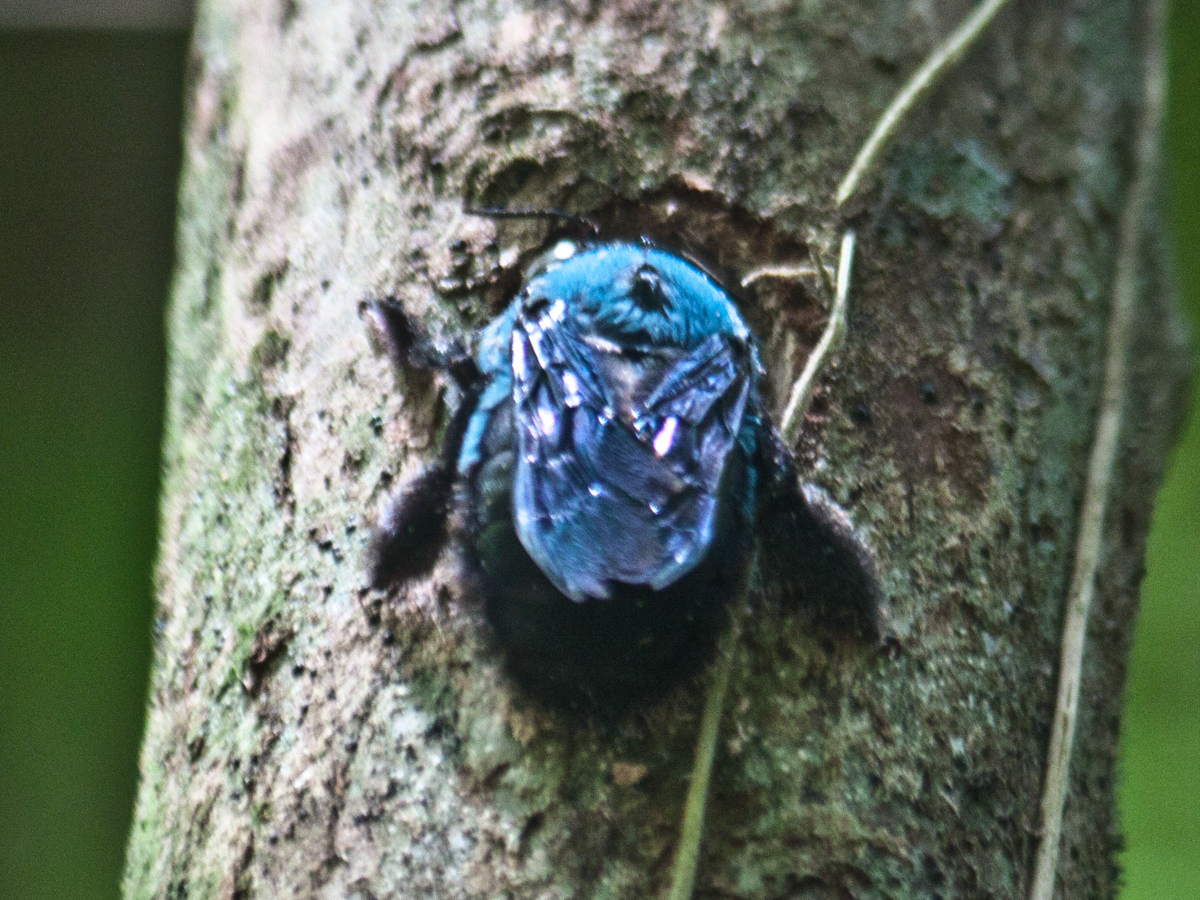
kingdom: Animalia
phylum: Arthropoda
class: Insecta
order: Hymenoptera
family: Apidae
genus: Xylocopa
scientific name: Xylocopa caerulea
